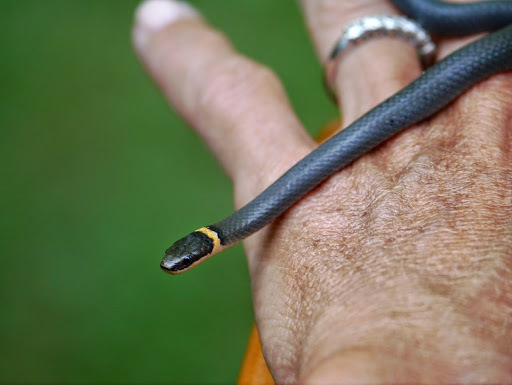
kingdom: Animalia
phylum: Chordata
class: Squamata
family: Colubridae
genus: Diadophis
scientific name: Diadophis punctatus
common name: Ringneck snake
